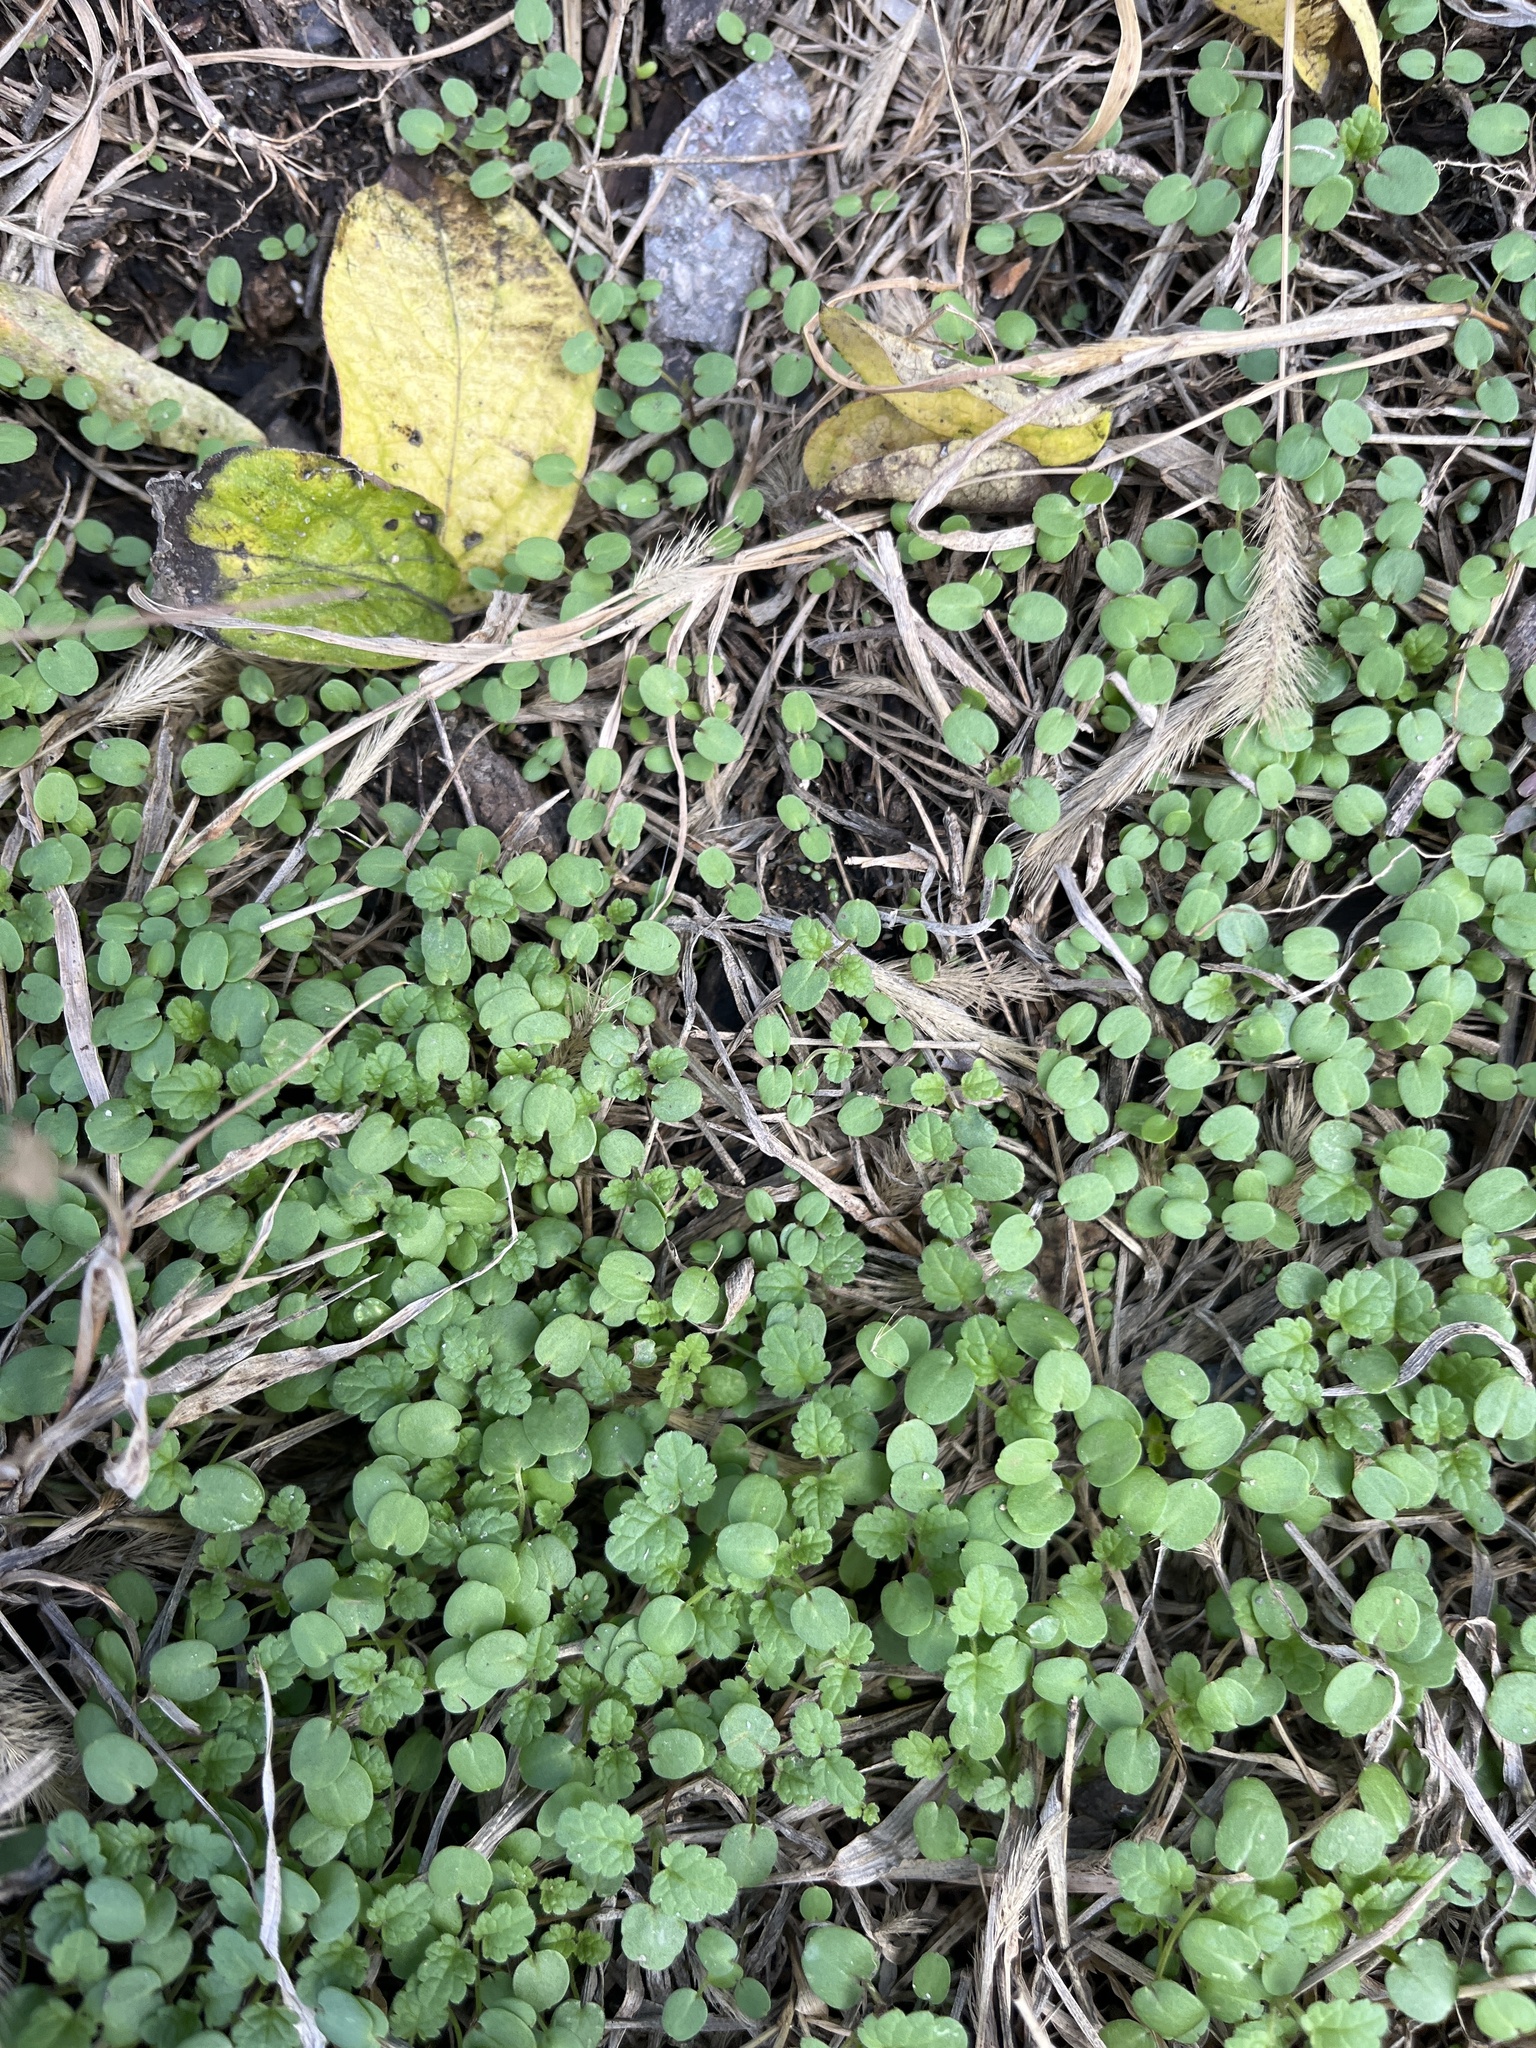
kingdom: Plantae
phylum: Tracheophyta
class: Magnoliopsida
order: Lamiales
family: Lamiaceae
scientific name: Lamiaceae
